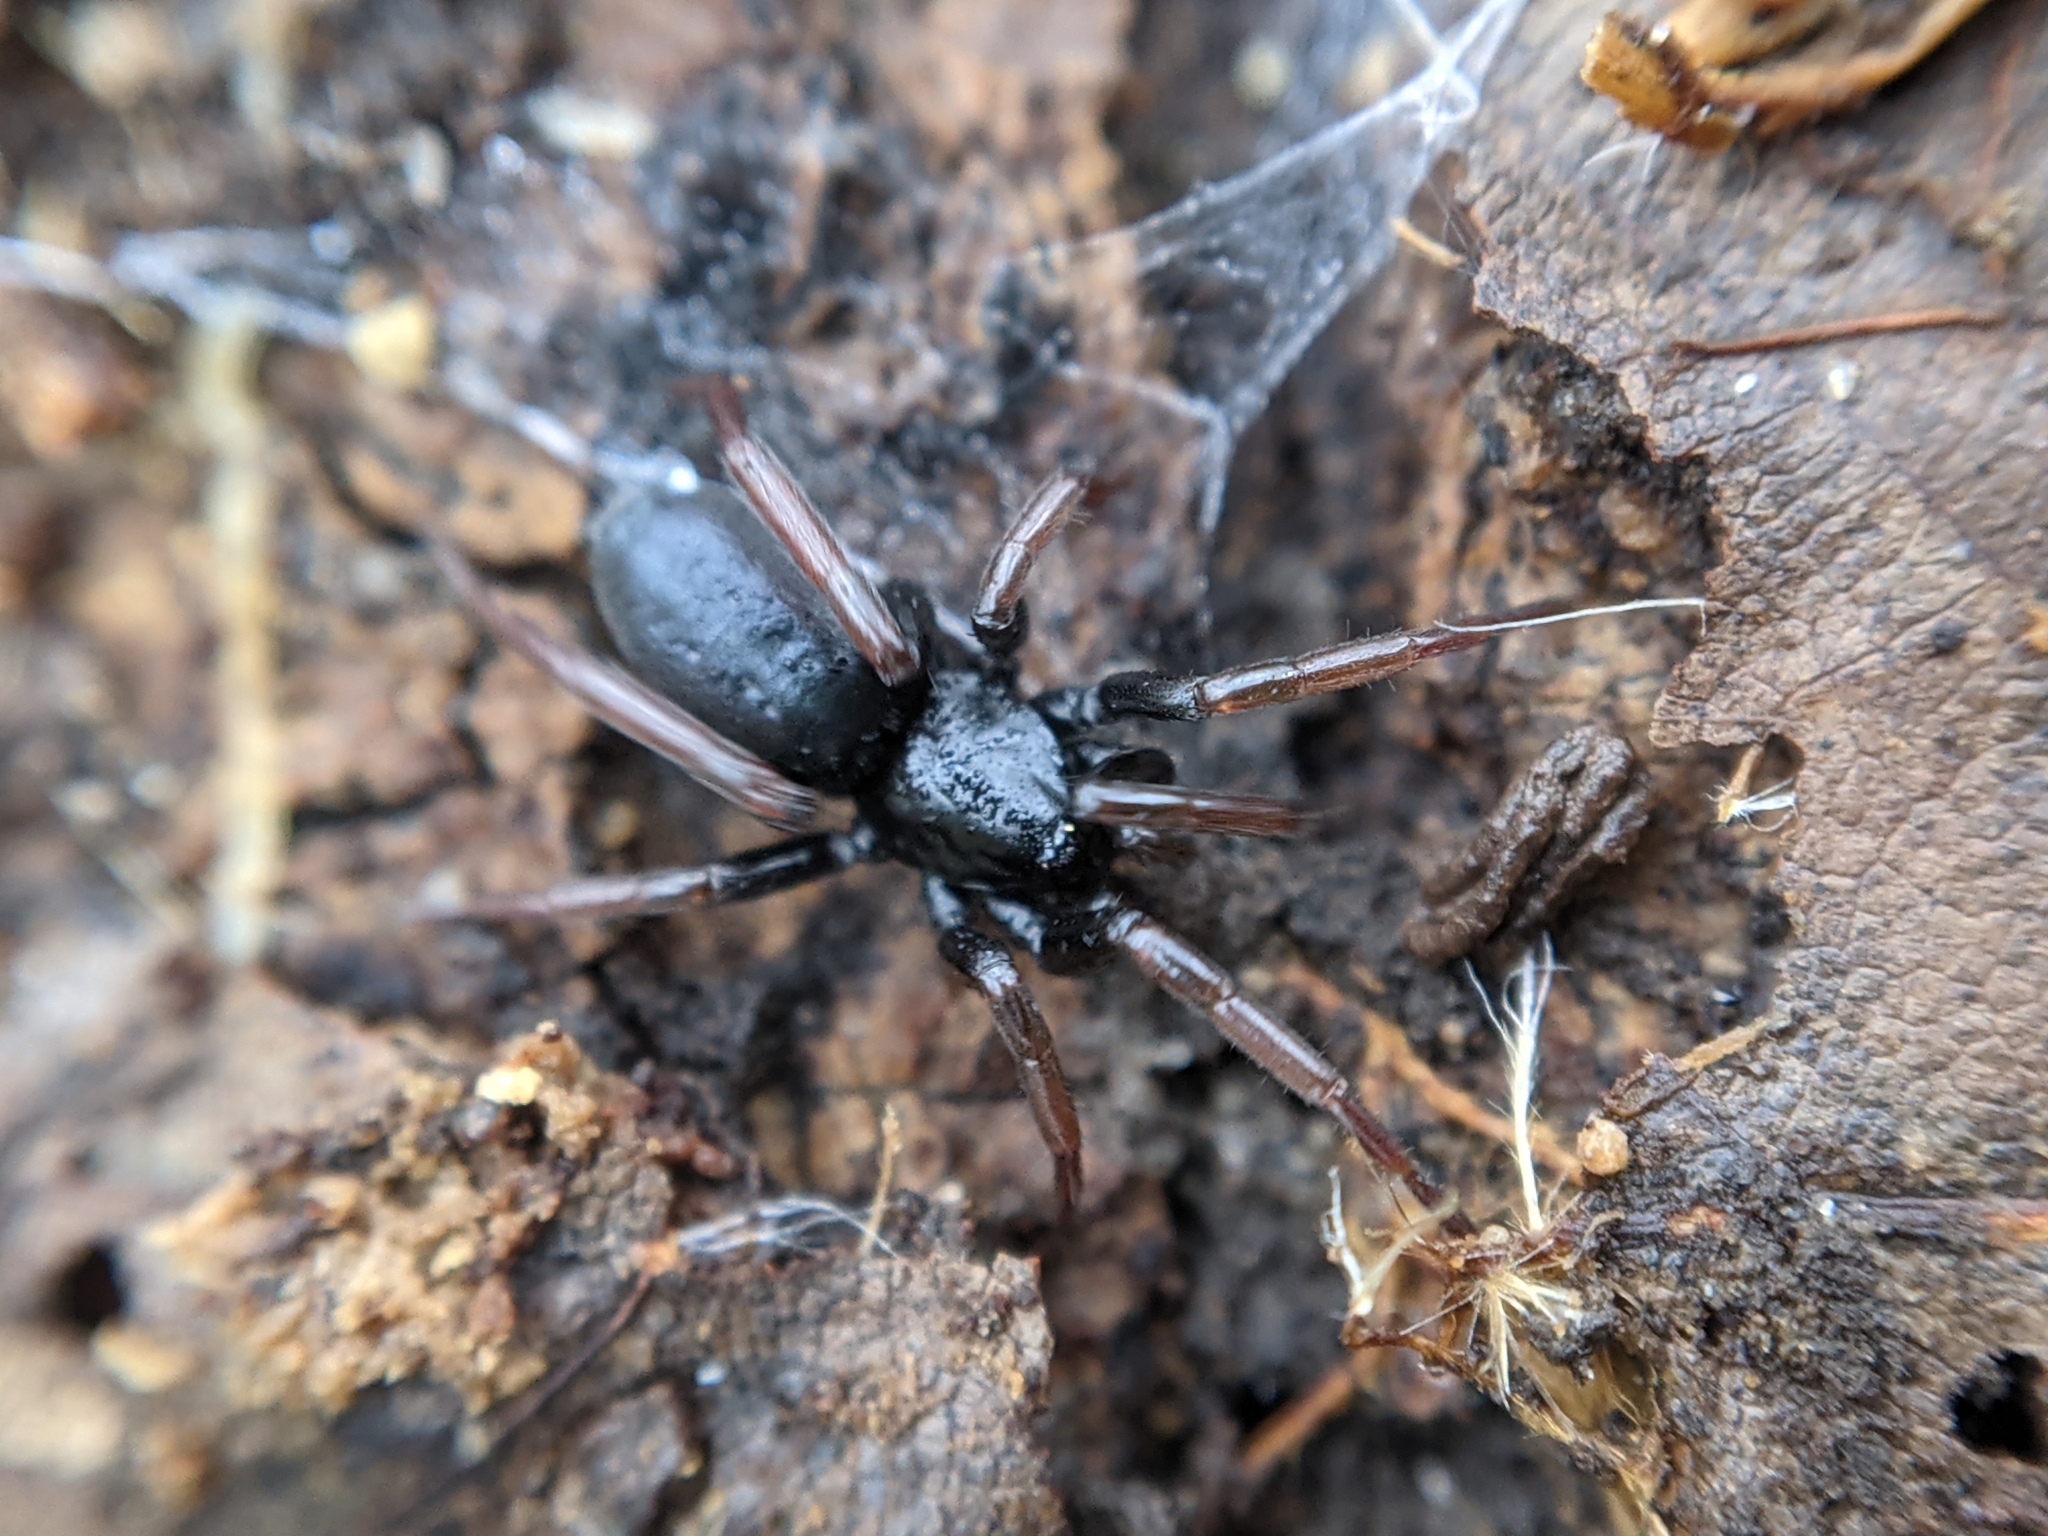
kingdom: Animalia
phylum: Arthropoda
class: Arachnida
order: Araneae
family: Gnaphosidae
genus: Trachyzelotes
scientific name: Trachyzelotes pedestris
